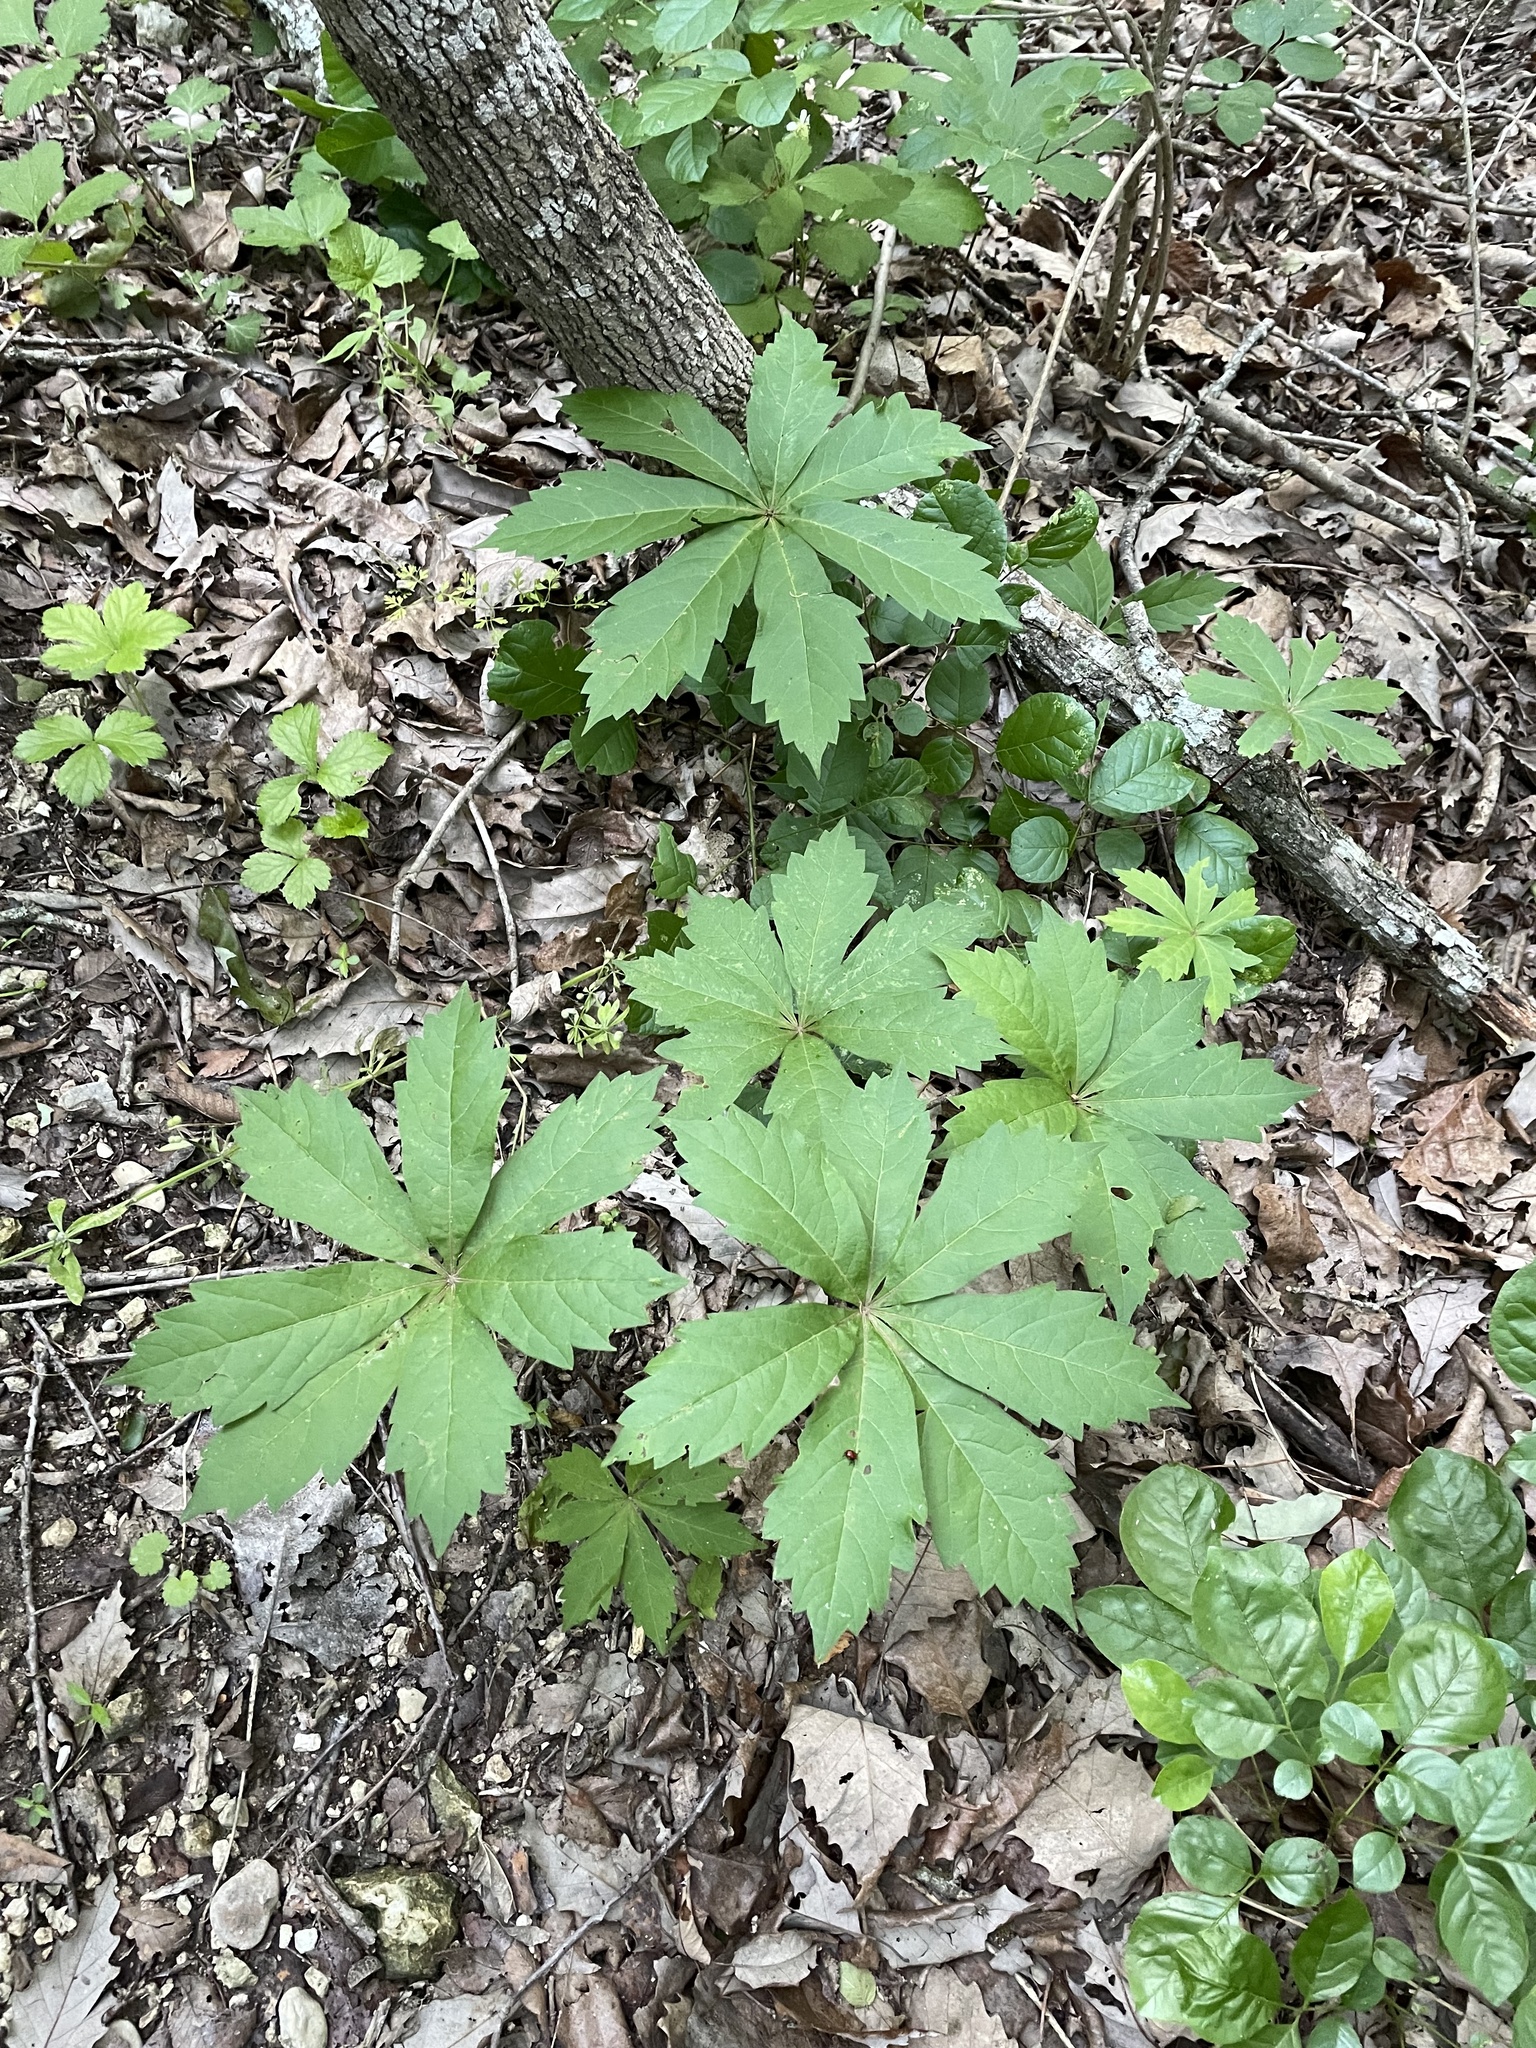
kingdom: Plantae
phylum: Tracheophyta
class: Magnoliopsida
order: Vitales
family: Vitaceae
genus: Parthenocissus
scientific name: Parthenocissus heptaphylla
